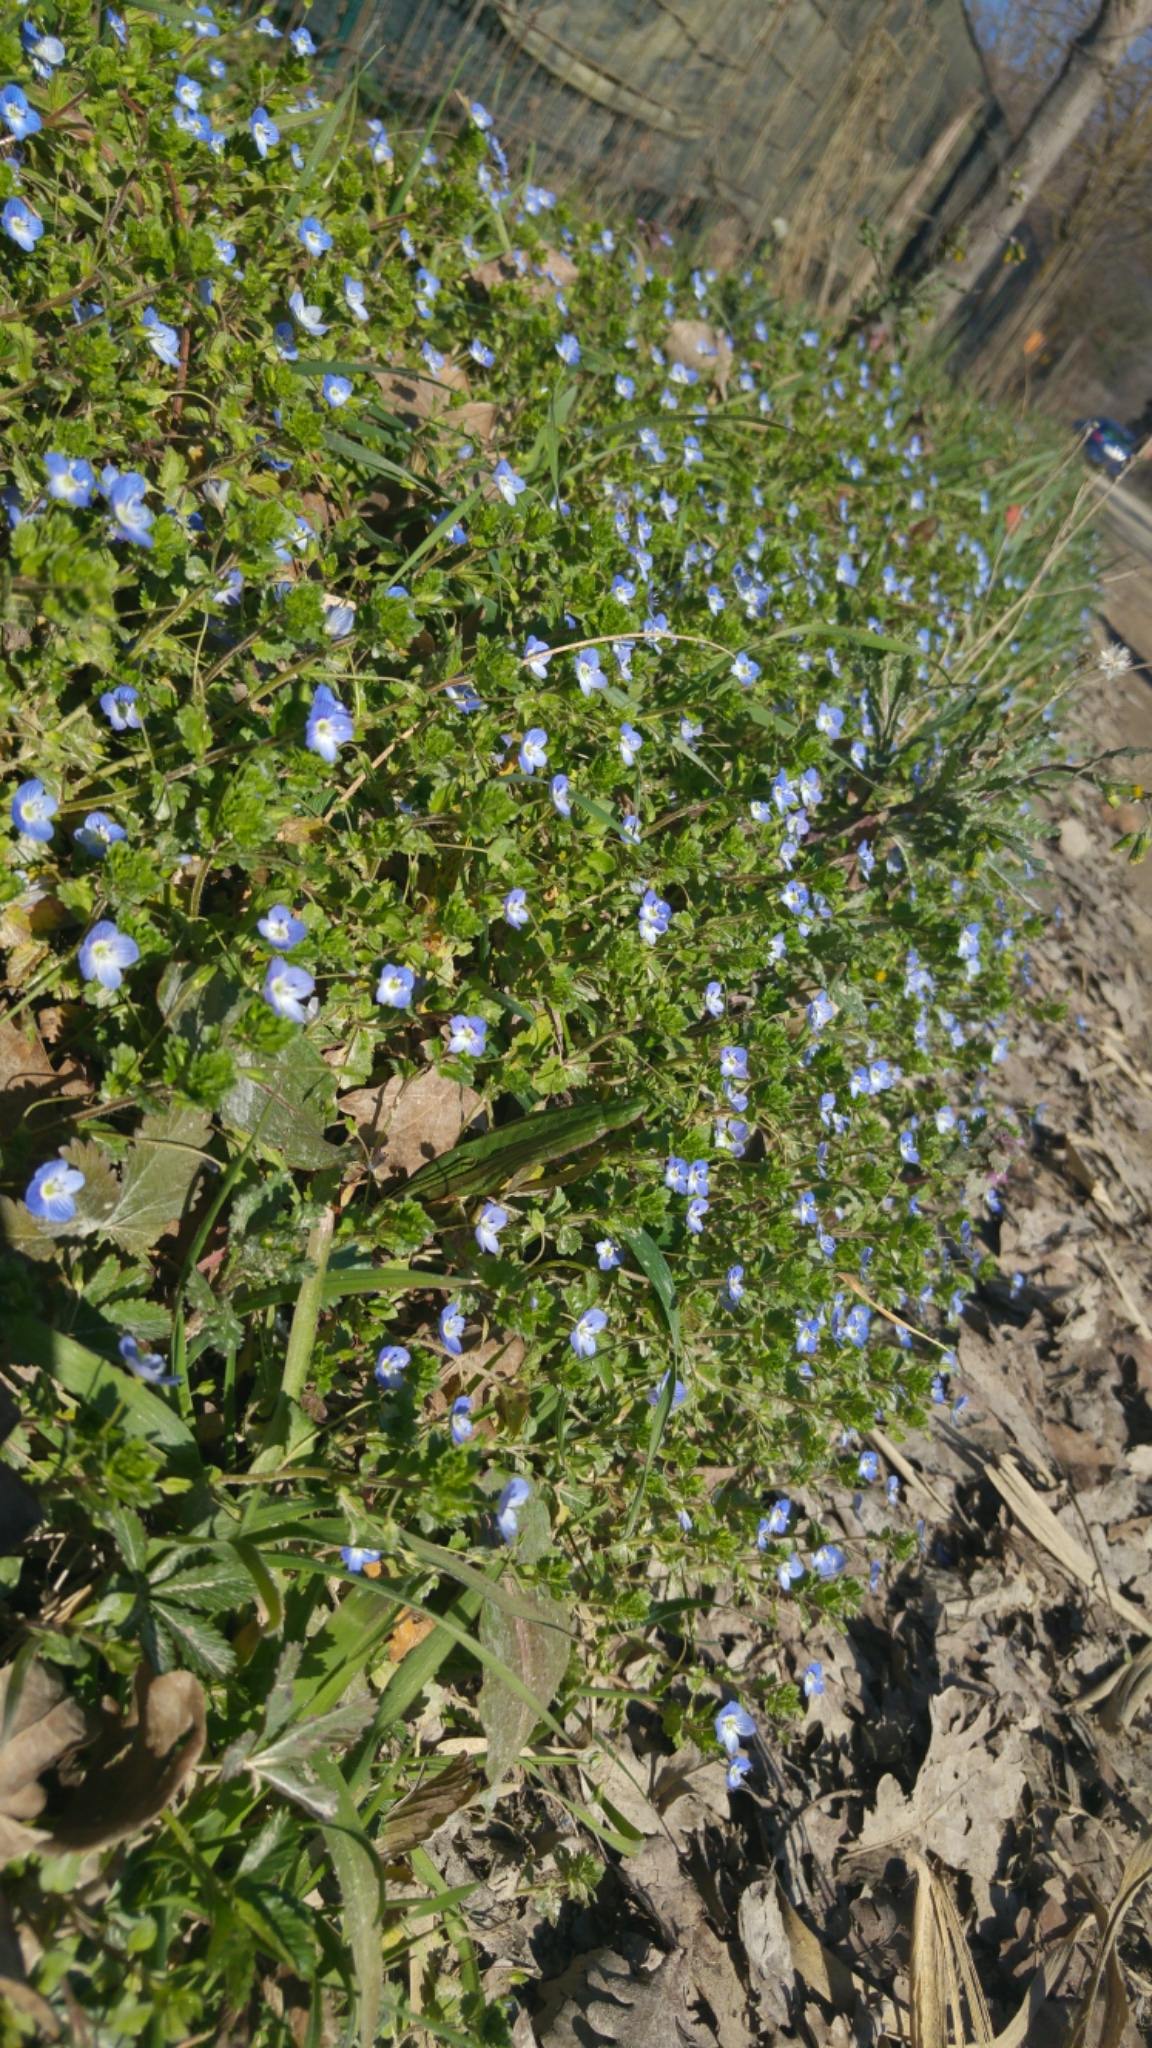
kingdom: Plantae
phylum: Tracheophyta
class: Magnoliopsida
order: Lamiales
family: Plantaginaceae
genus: Veronica
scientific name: Veronica persica
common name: Common field-speedwell
